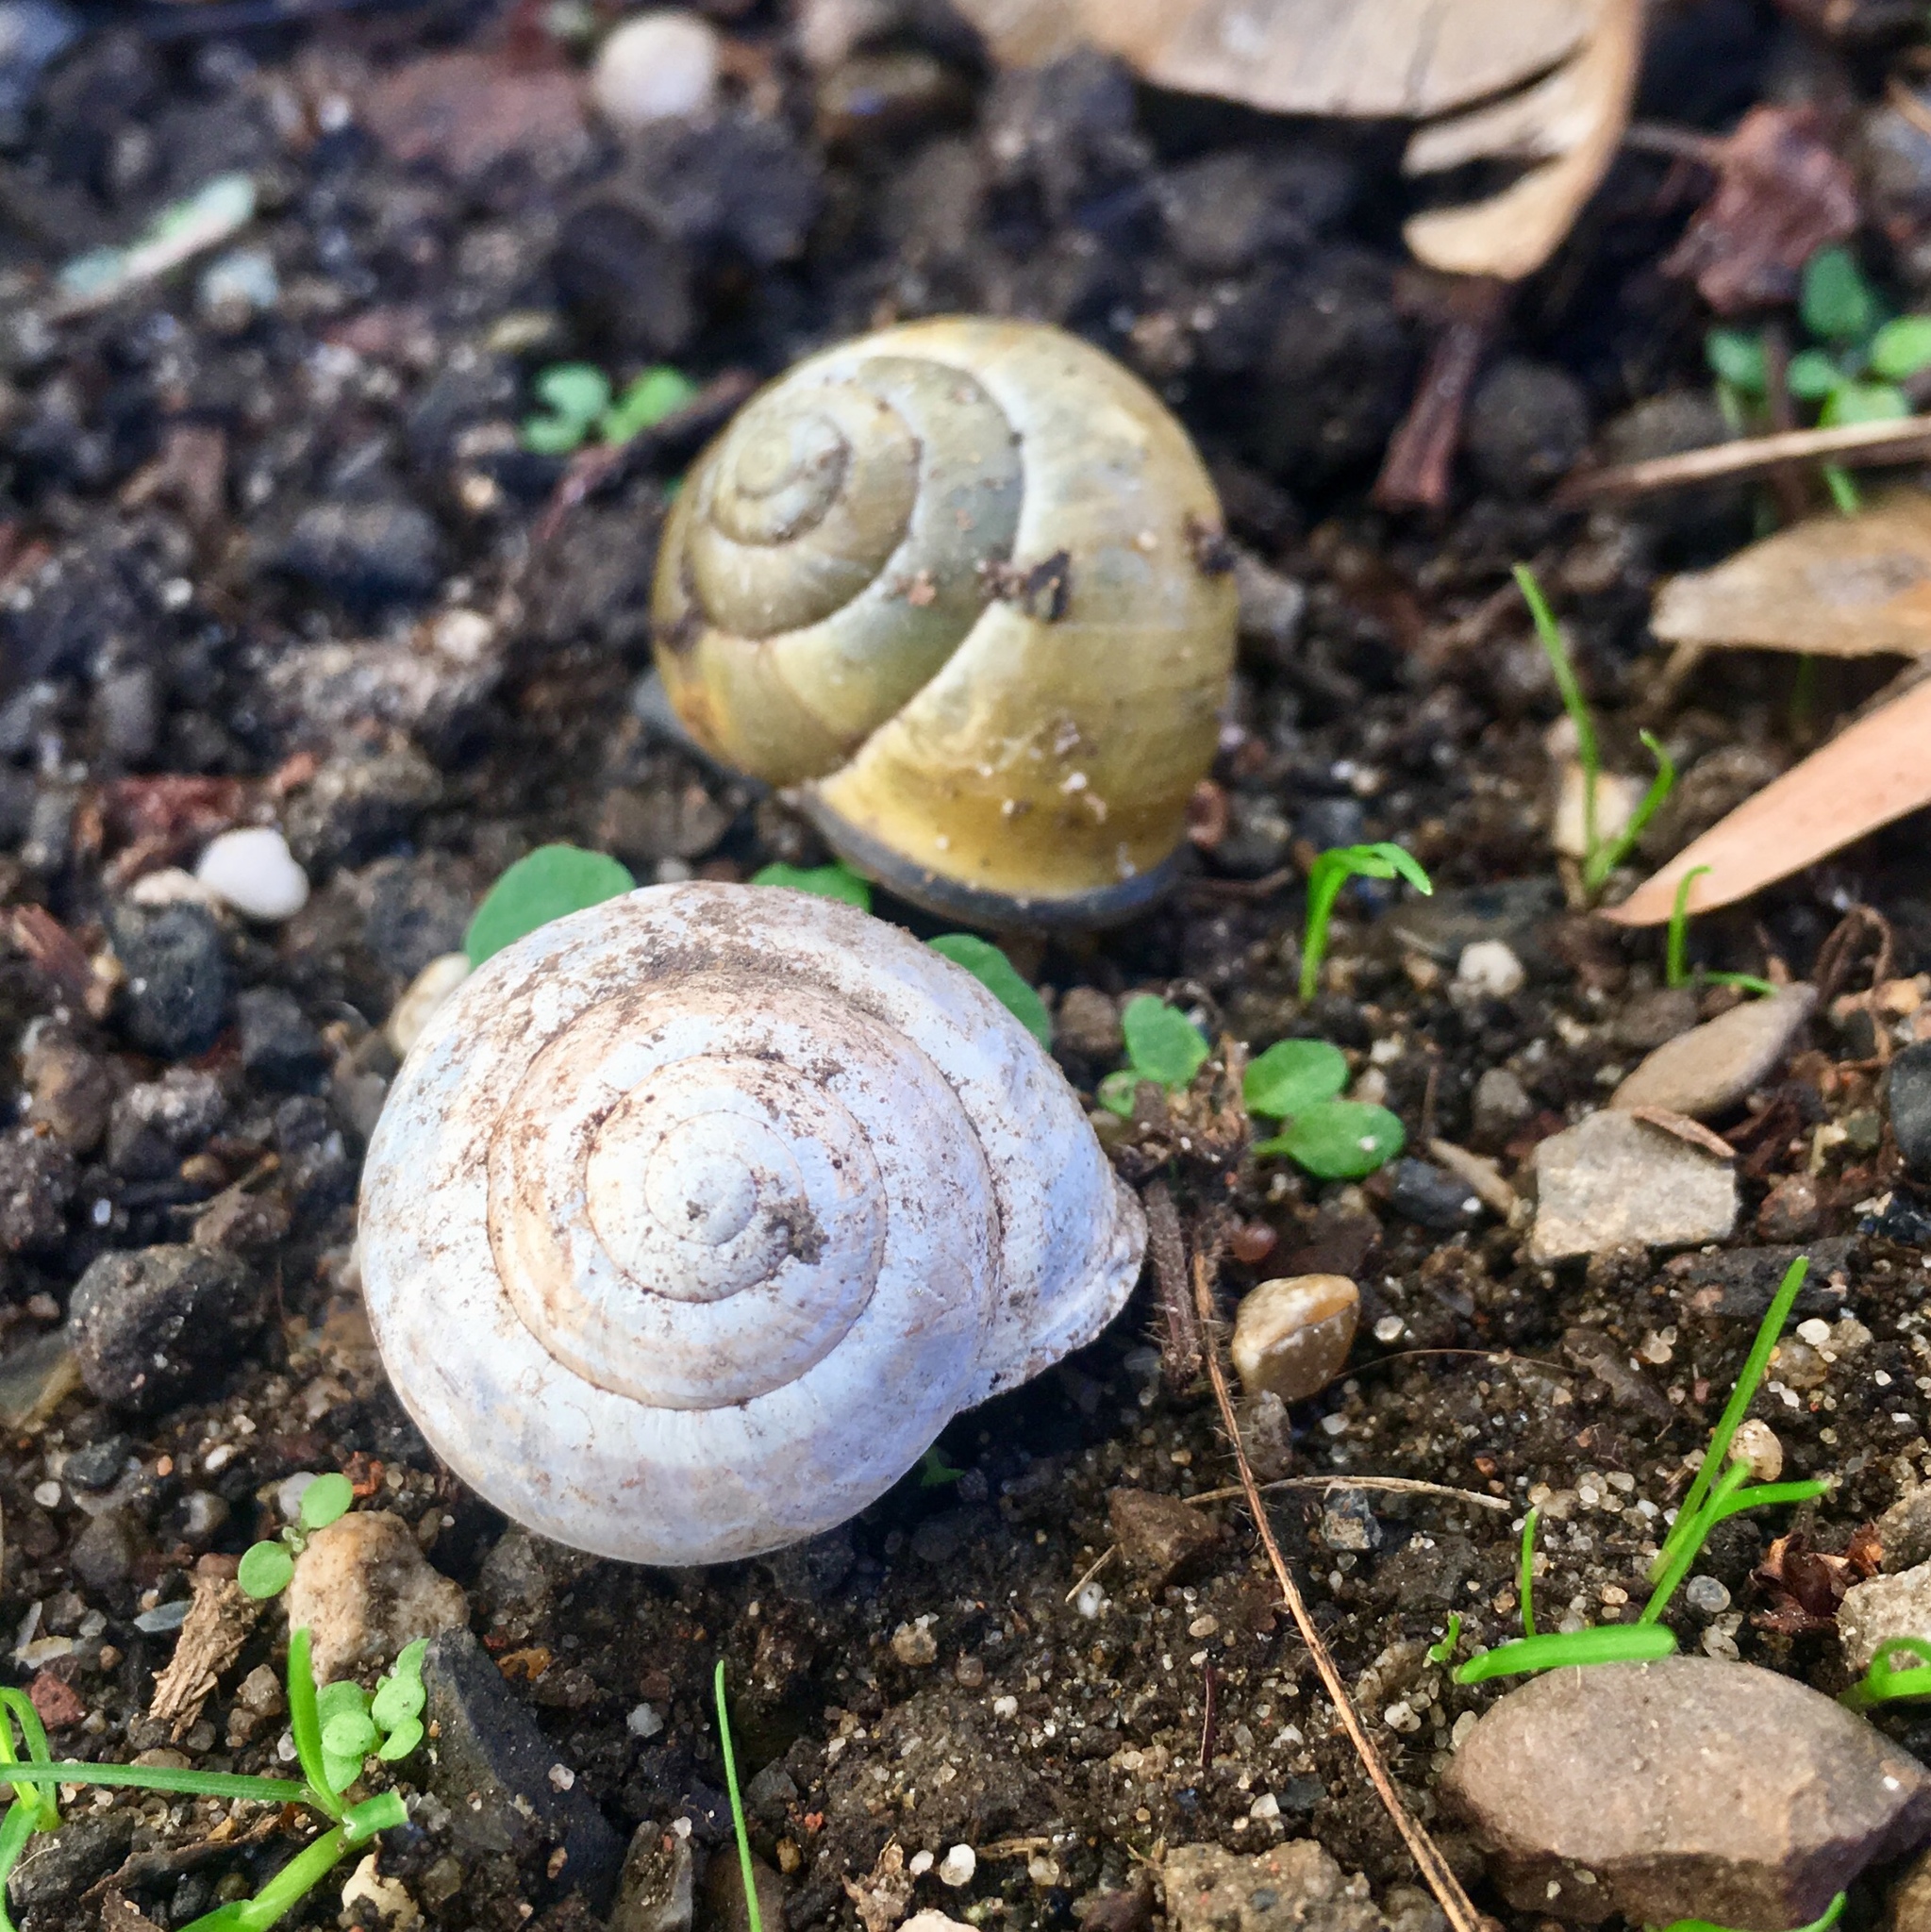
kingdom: Animalia
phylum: Mollusca
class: Gastropoda
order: Stylommatophora
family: Helicidae
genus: Cepaea
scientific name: Cepaea nemoralis
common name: Grovesnail
